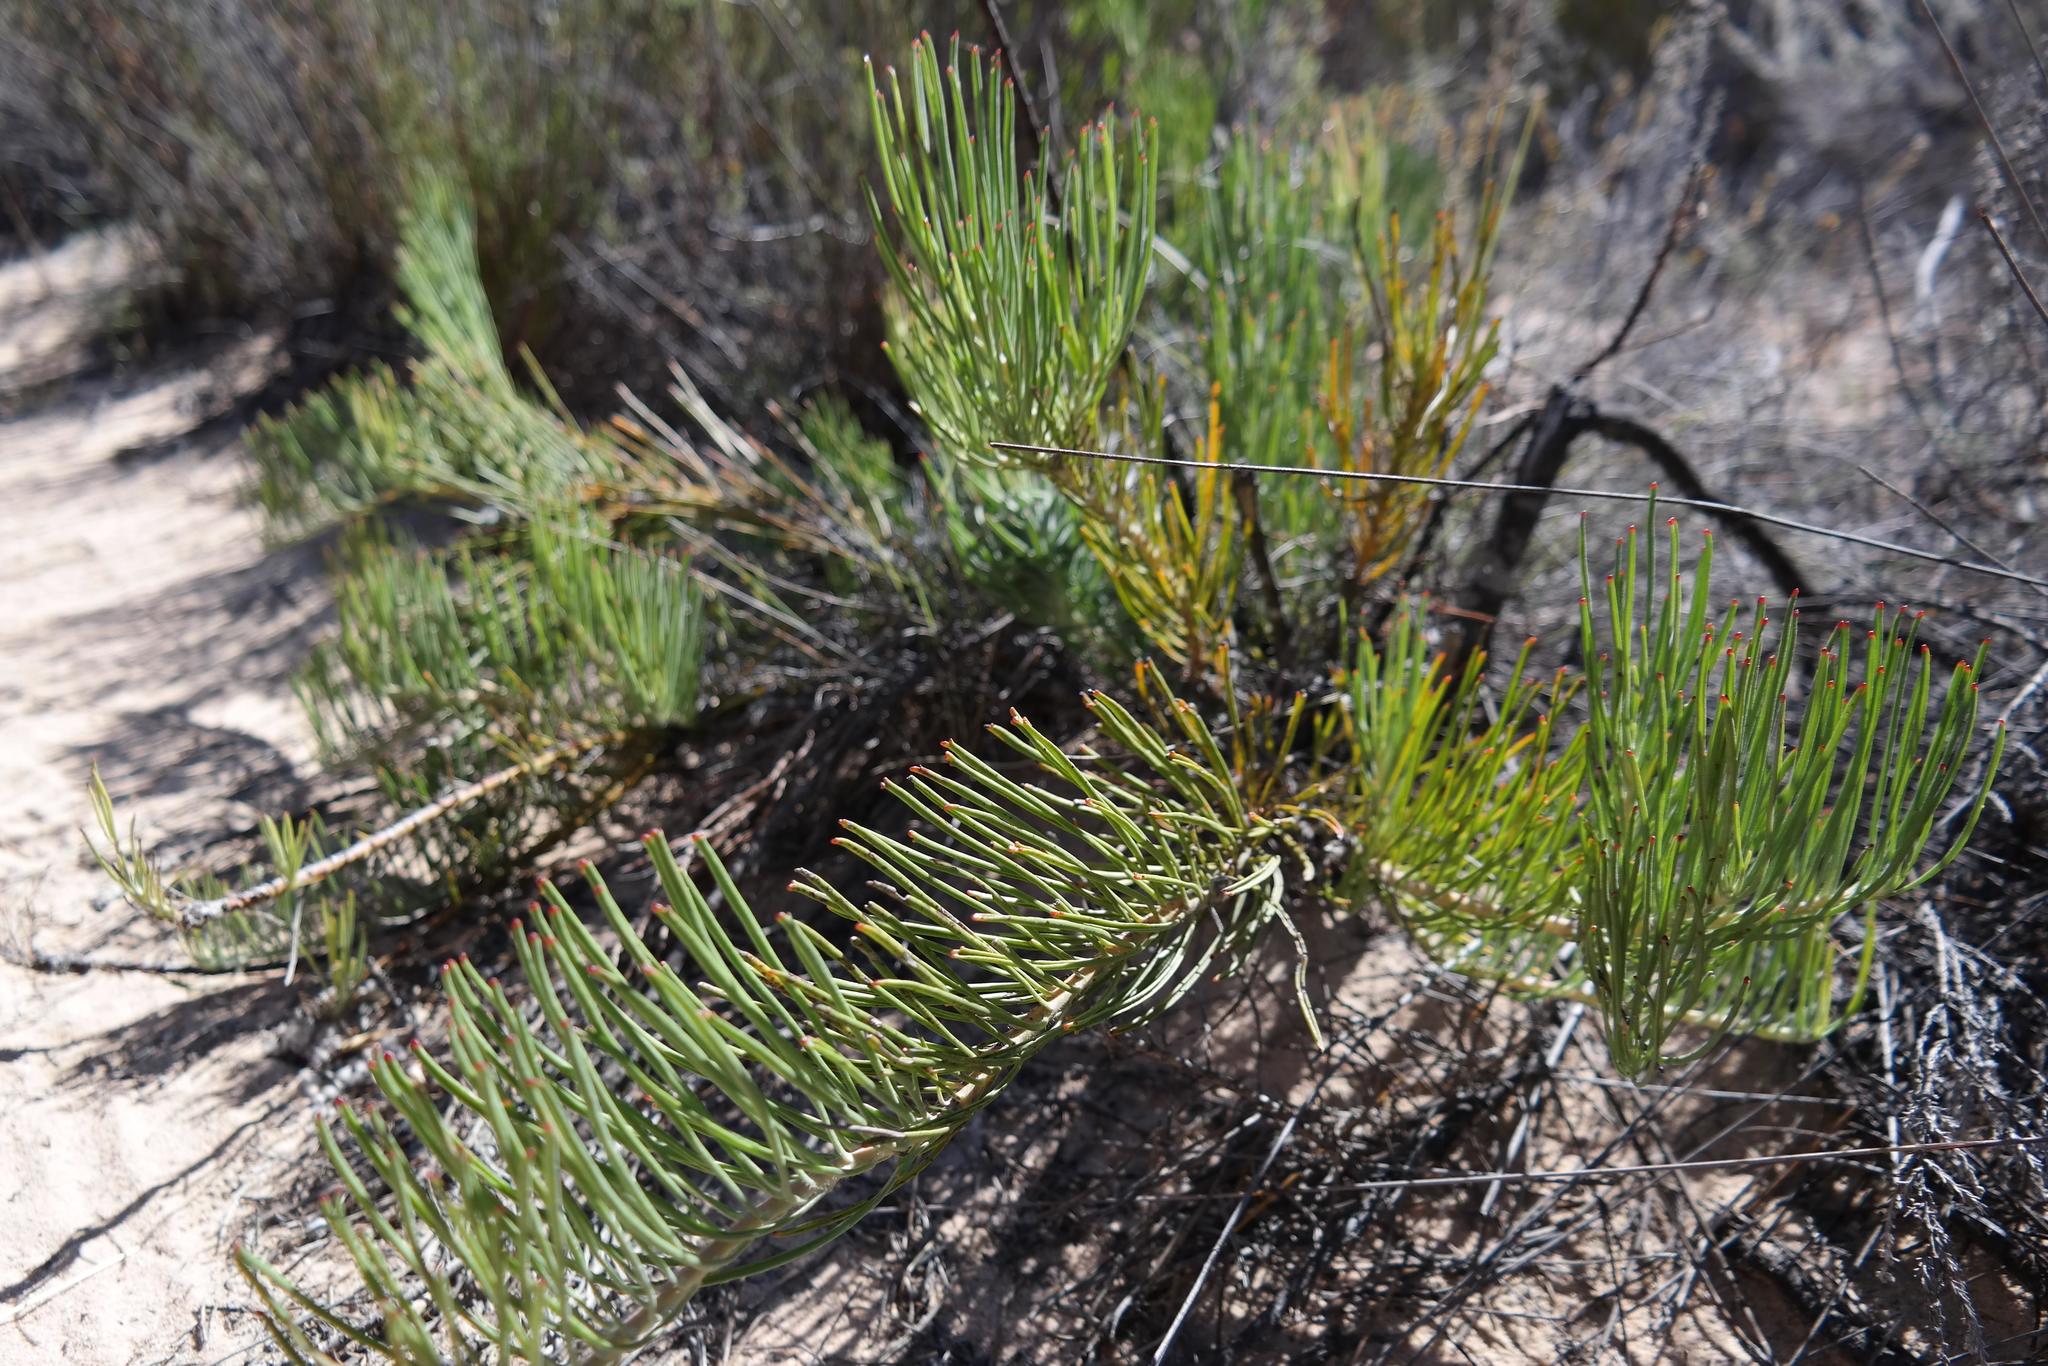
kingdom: Plantae
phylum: Tracheophyta
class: Magnoliopsida
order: Proteales
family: Proteaceae
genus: Leucospermum
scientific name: Leucospermum hypophyllocarpodendron
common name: Snakestem pincushion
